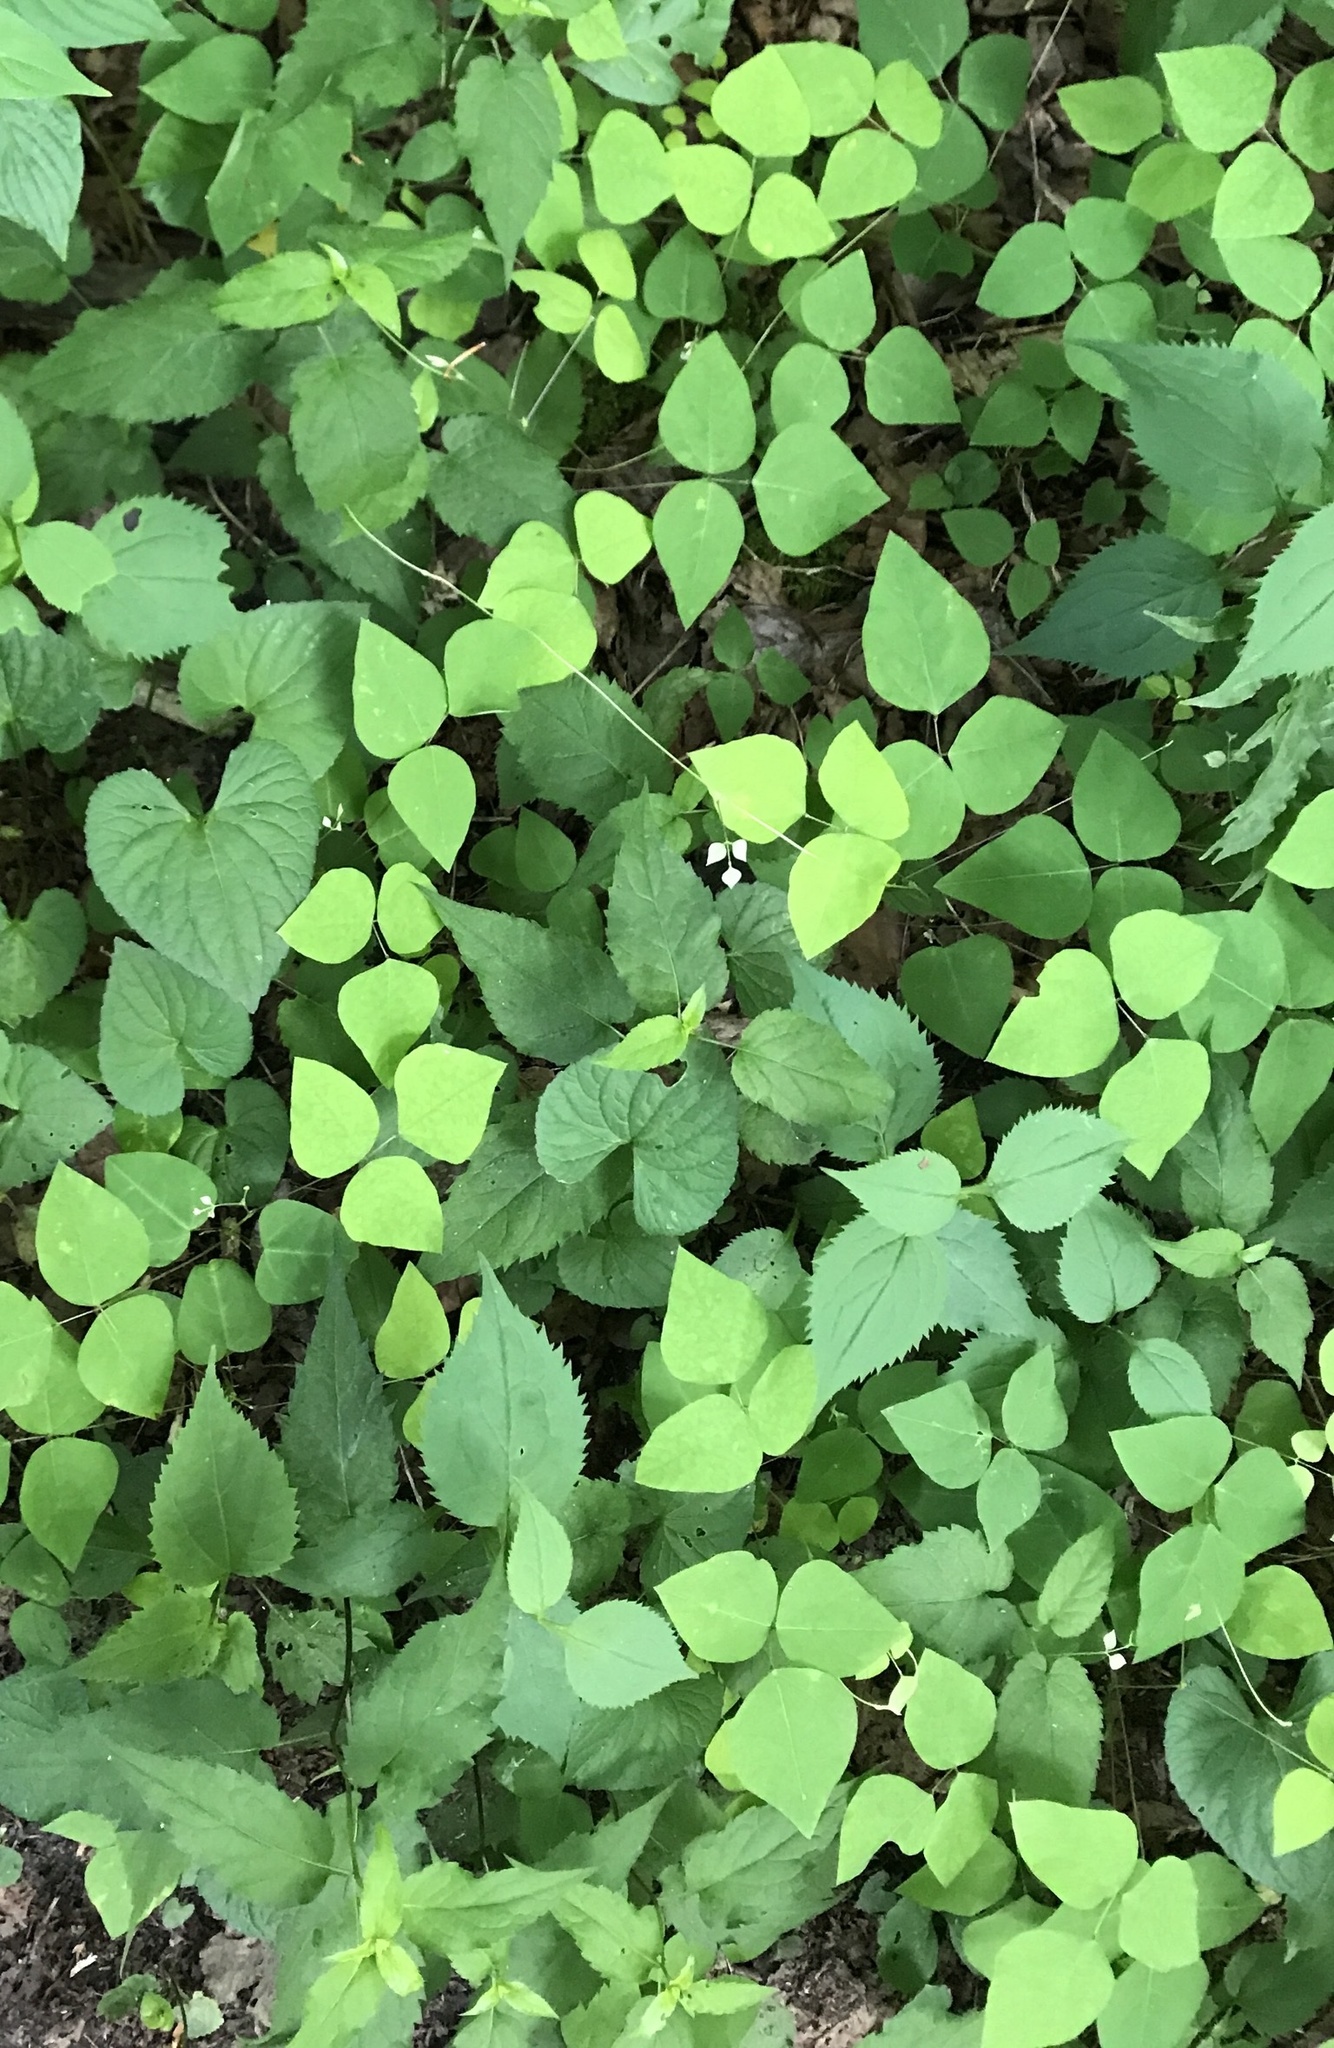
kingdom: Plantae
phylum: Tracheophyta
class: Magnoliopsida
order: Fabales
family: Fabaceae
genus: Amphicarpaea
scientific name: Amphicarpaea bracteata
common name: American hog peanut
